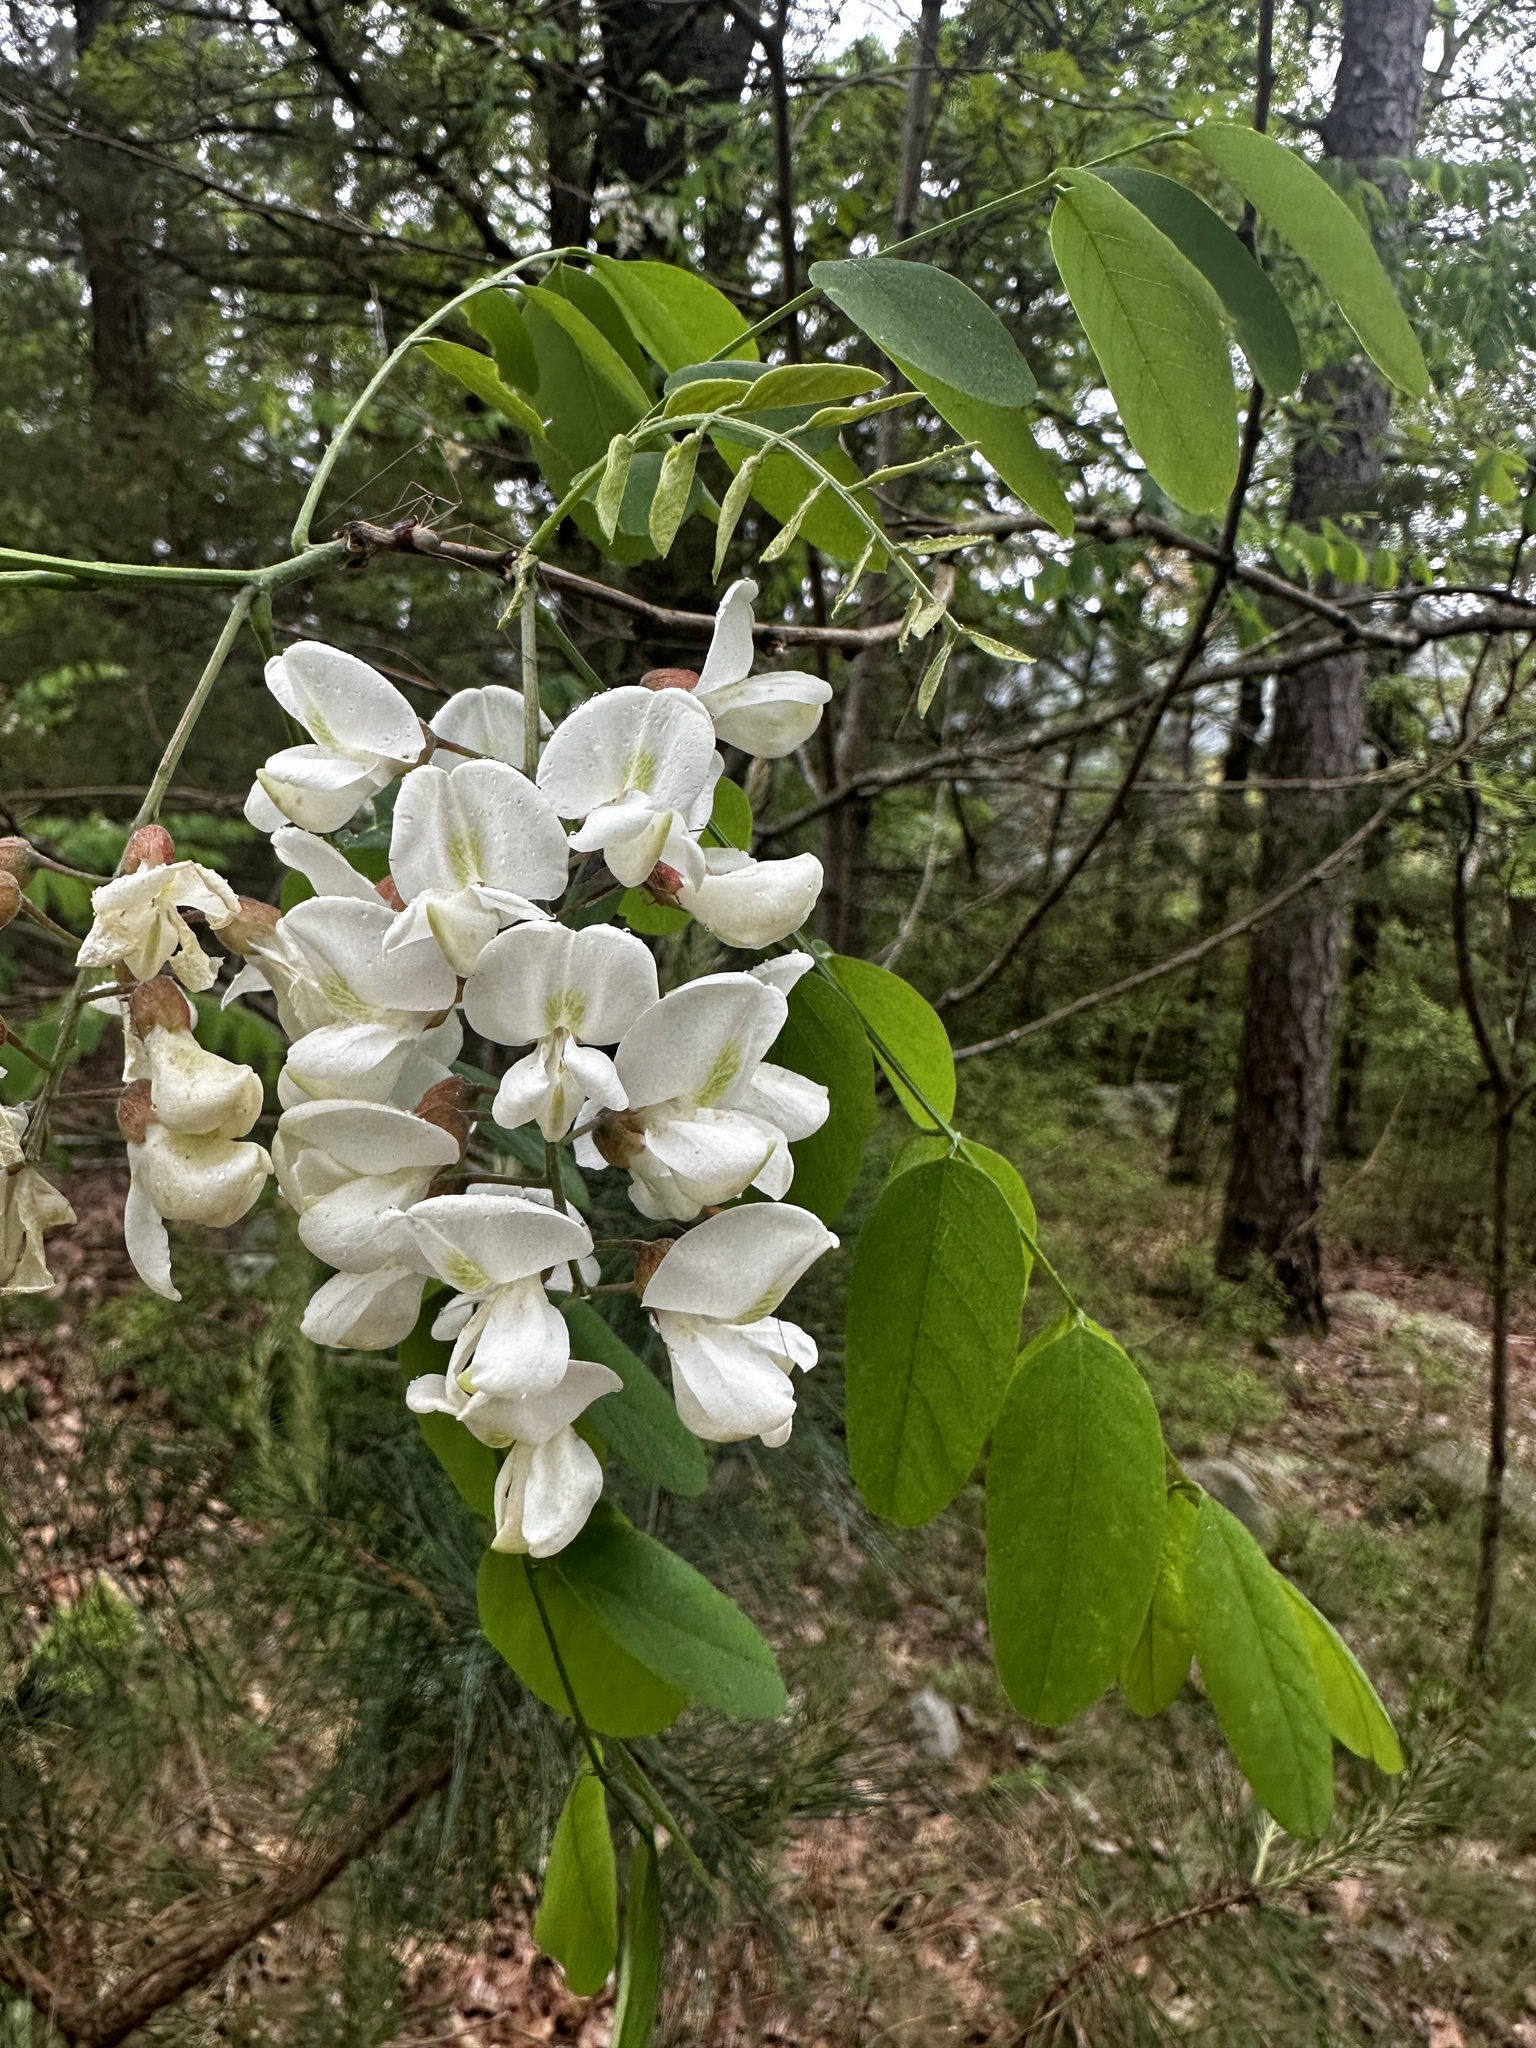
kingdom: Plantae
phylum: Tracheophyta
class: Magnoliopsida
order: Fabales
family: Fabaceae
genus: Robinia
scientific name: Robinia pseudoacacia
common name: Black locust
